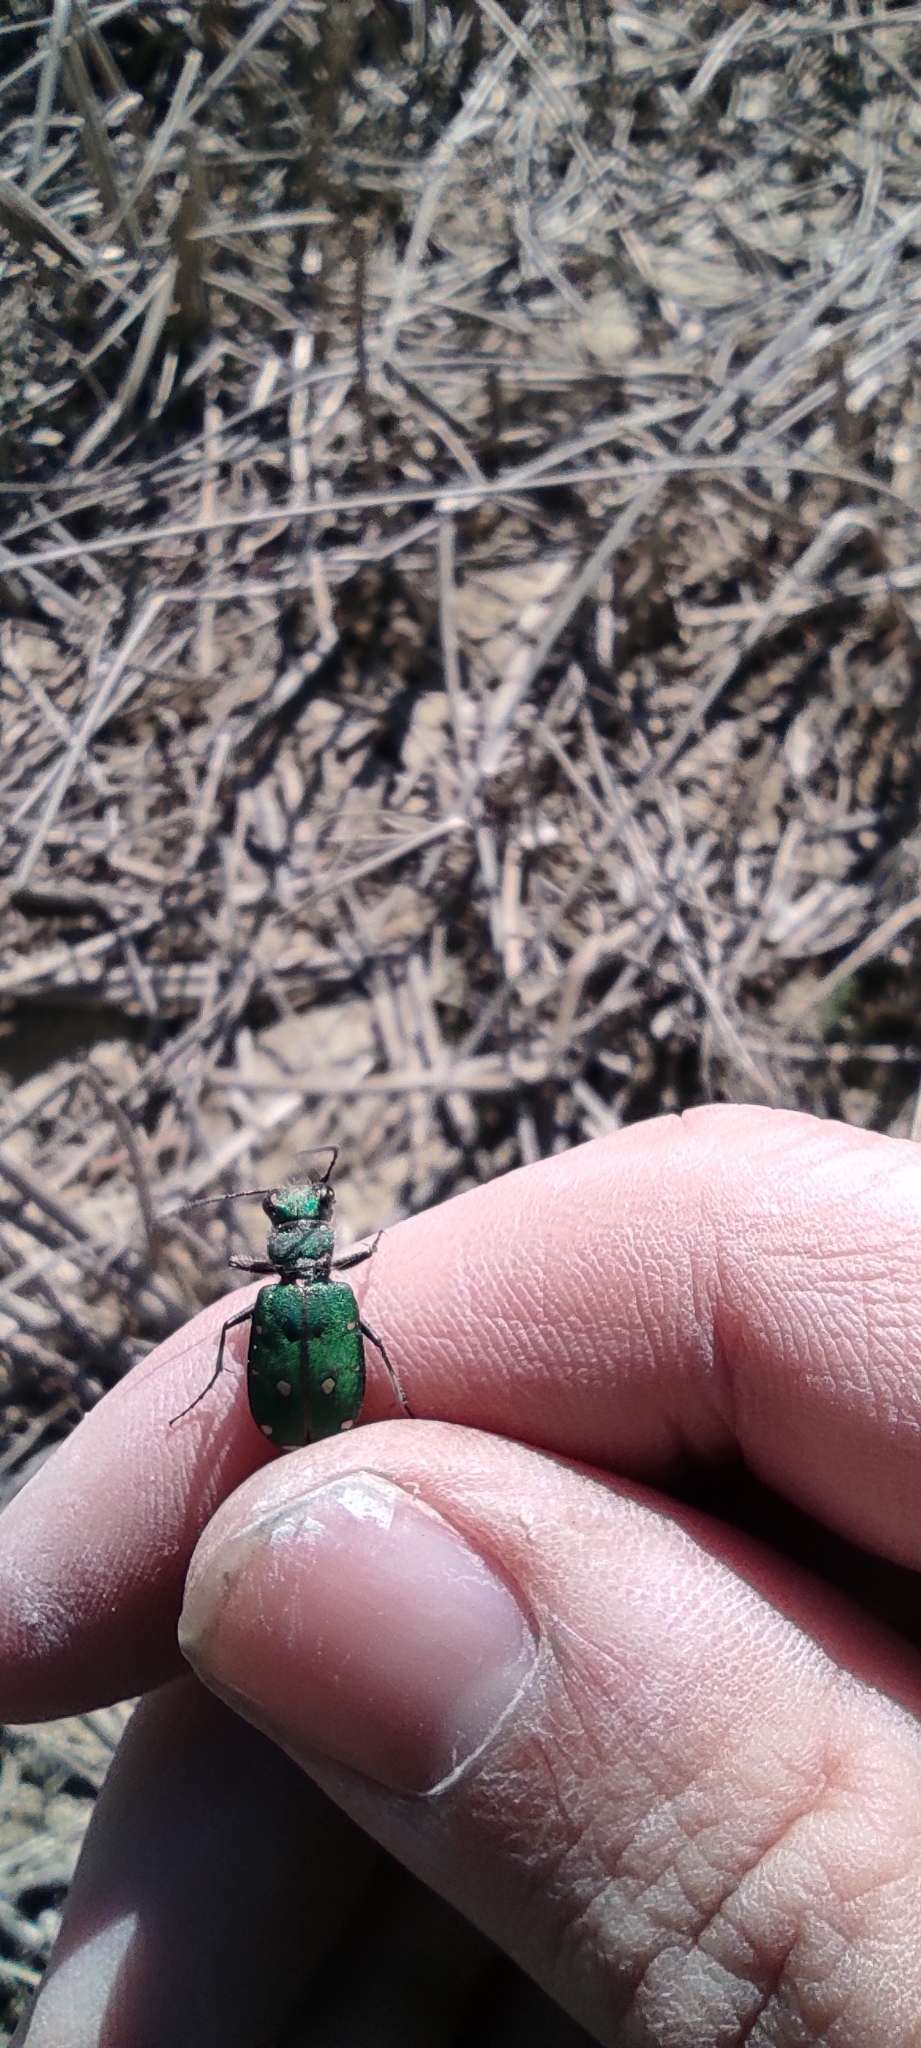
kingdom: Animalia
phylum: Arthropoda
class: Insecta
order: Coleoptera
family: Carabidae
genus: Cicindela
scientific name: Cicindela campestris
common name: Common tiger beetle
